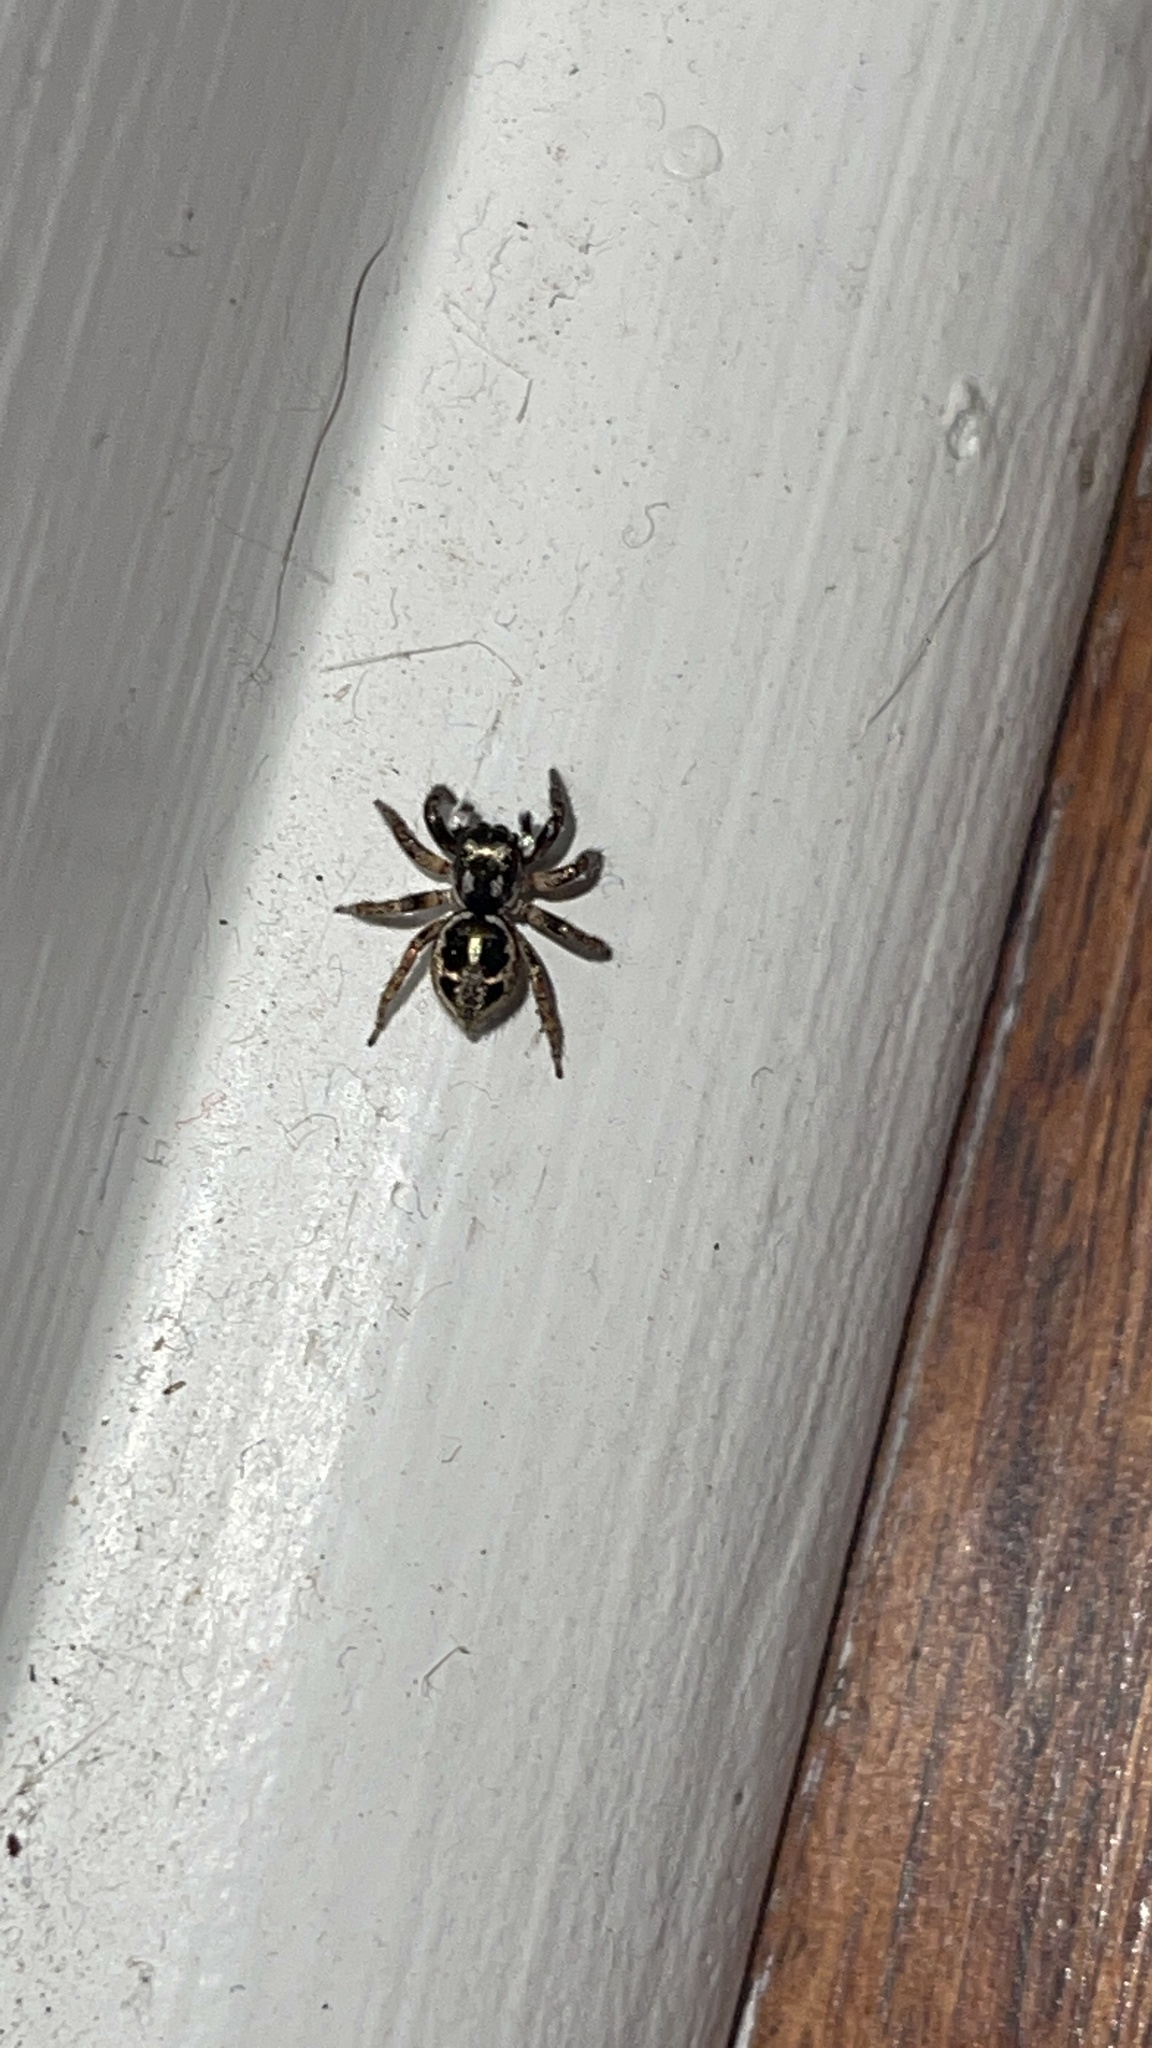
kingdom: Animalia
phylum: Arthropoda
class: Arachnida
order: Araneae
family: Salticidae
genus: Anasaitis
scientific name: Anasaitis canosa
